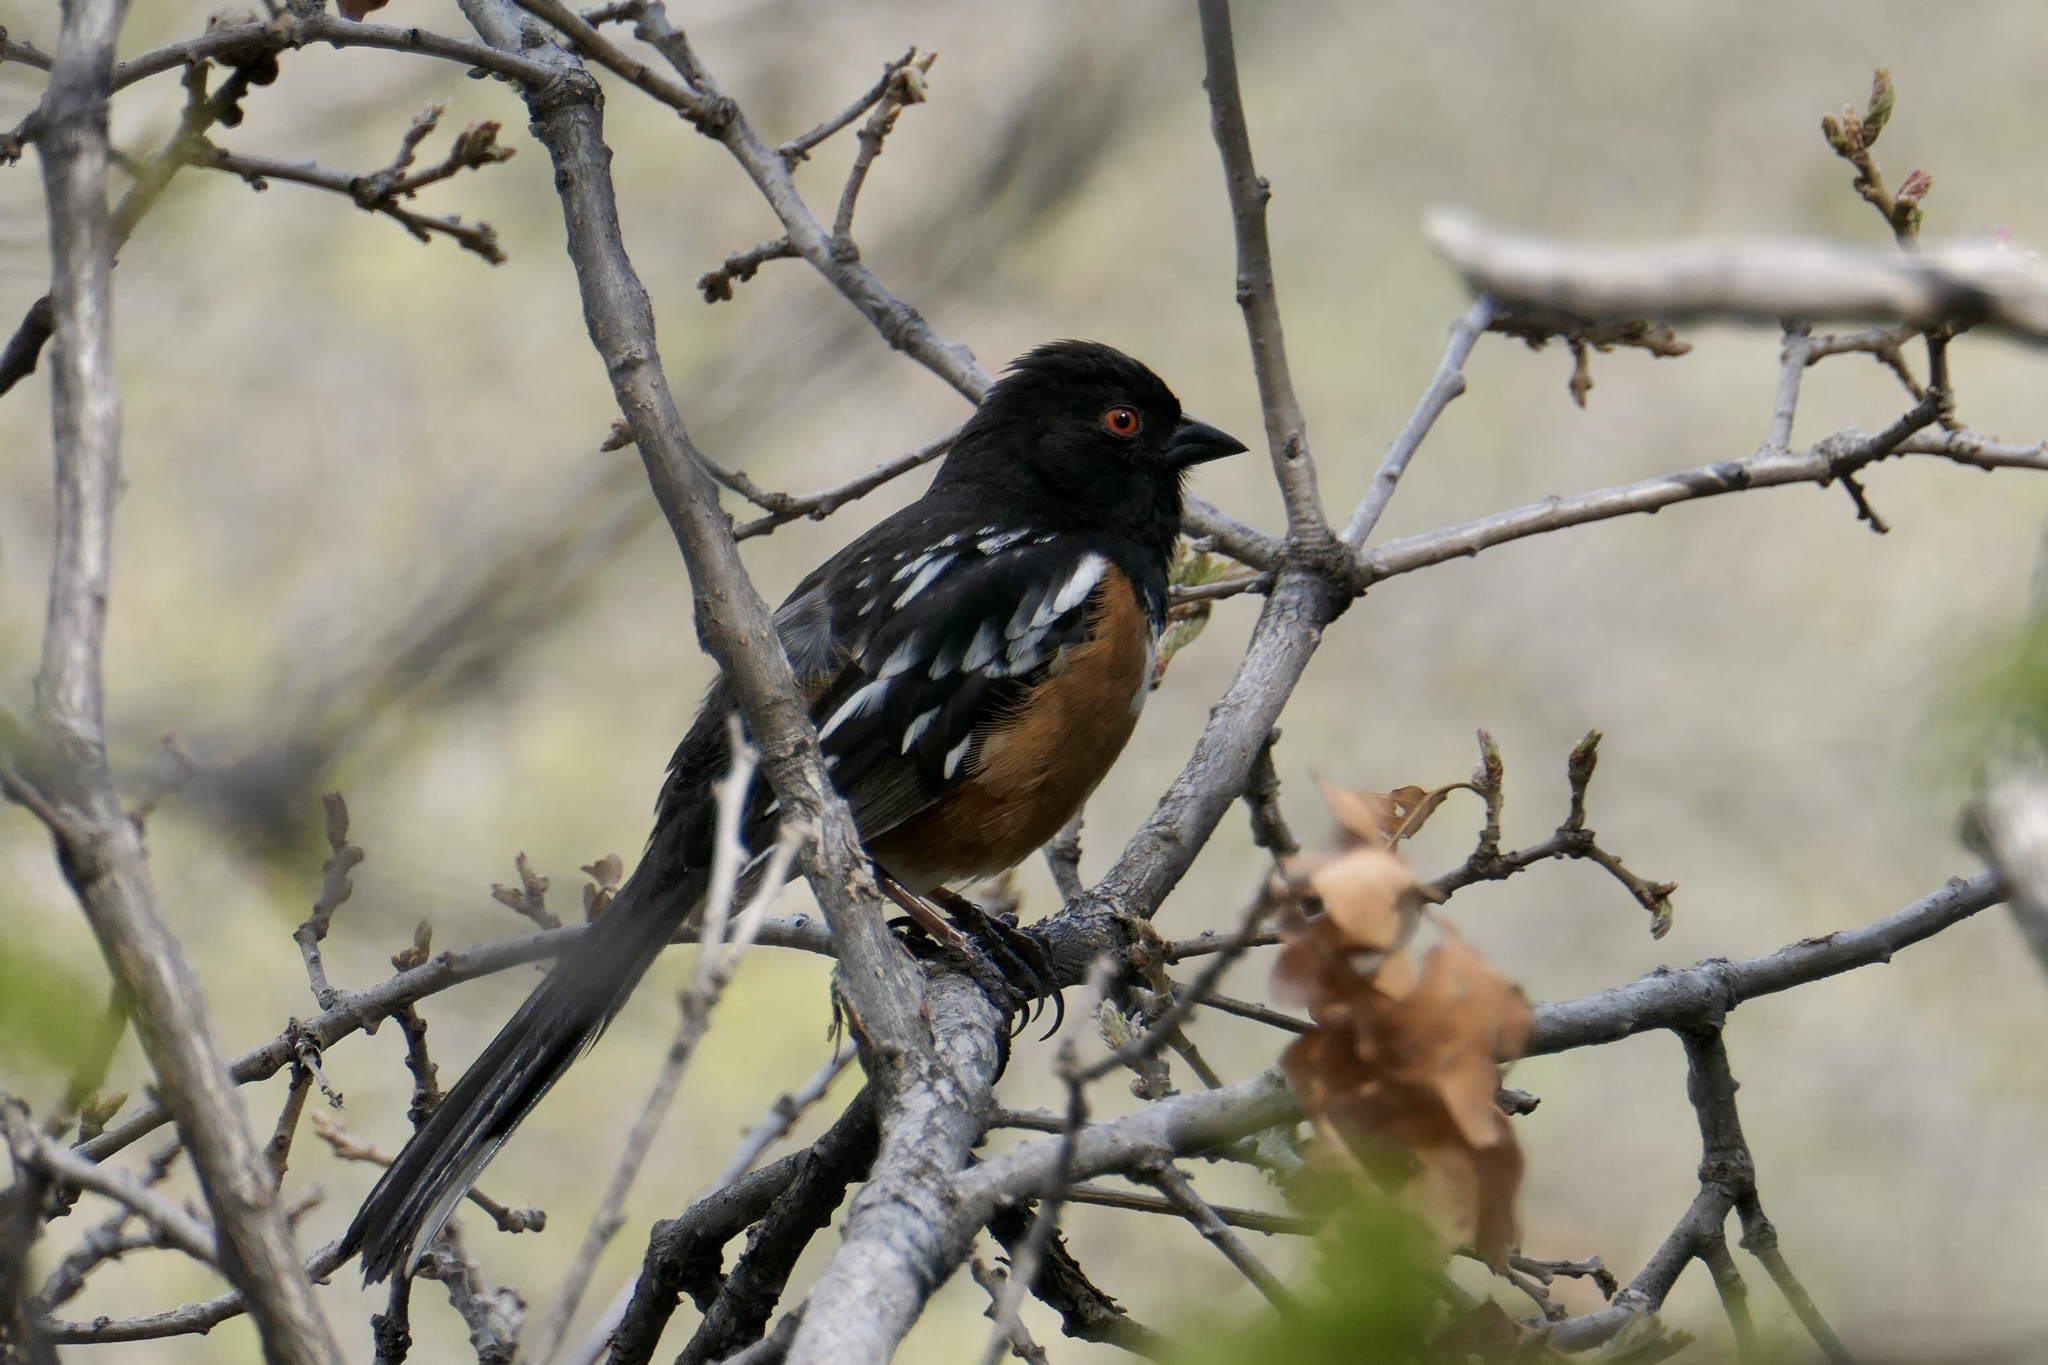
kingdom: Animalia
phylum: Chordata
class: Aves
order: Passeriformes
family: Passerellidae
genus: Pipilo
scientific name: Pipilo maculatus
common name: Spotted towhee
